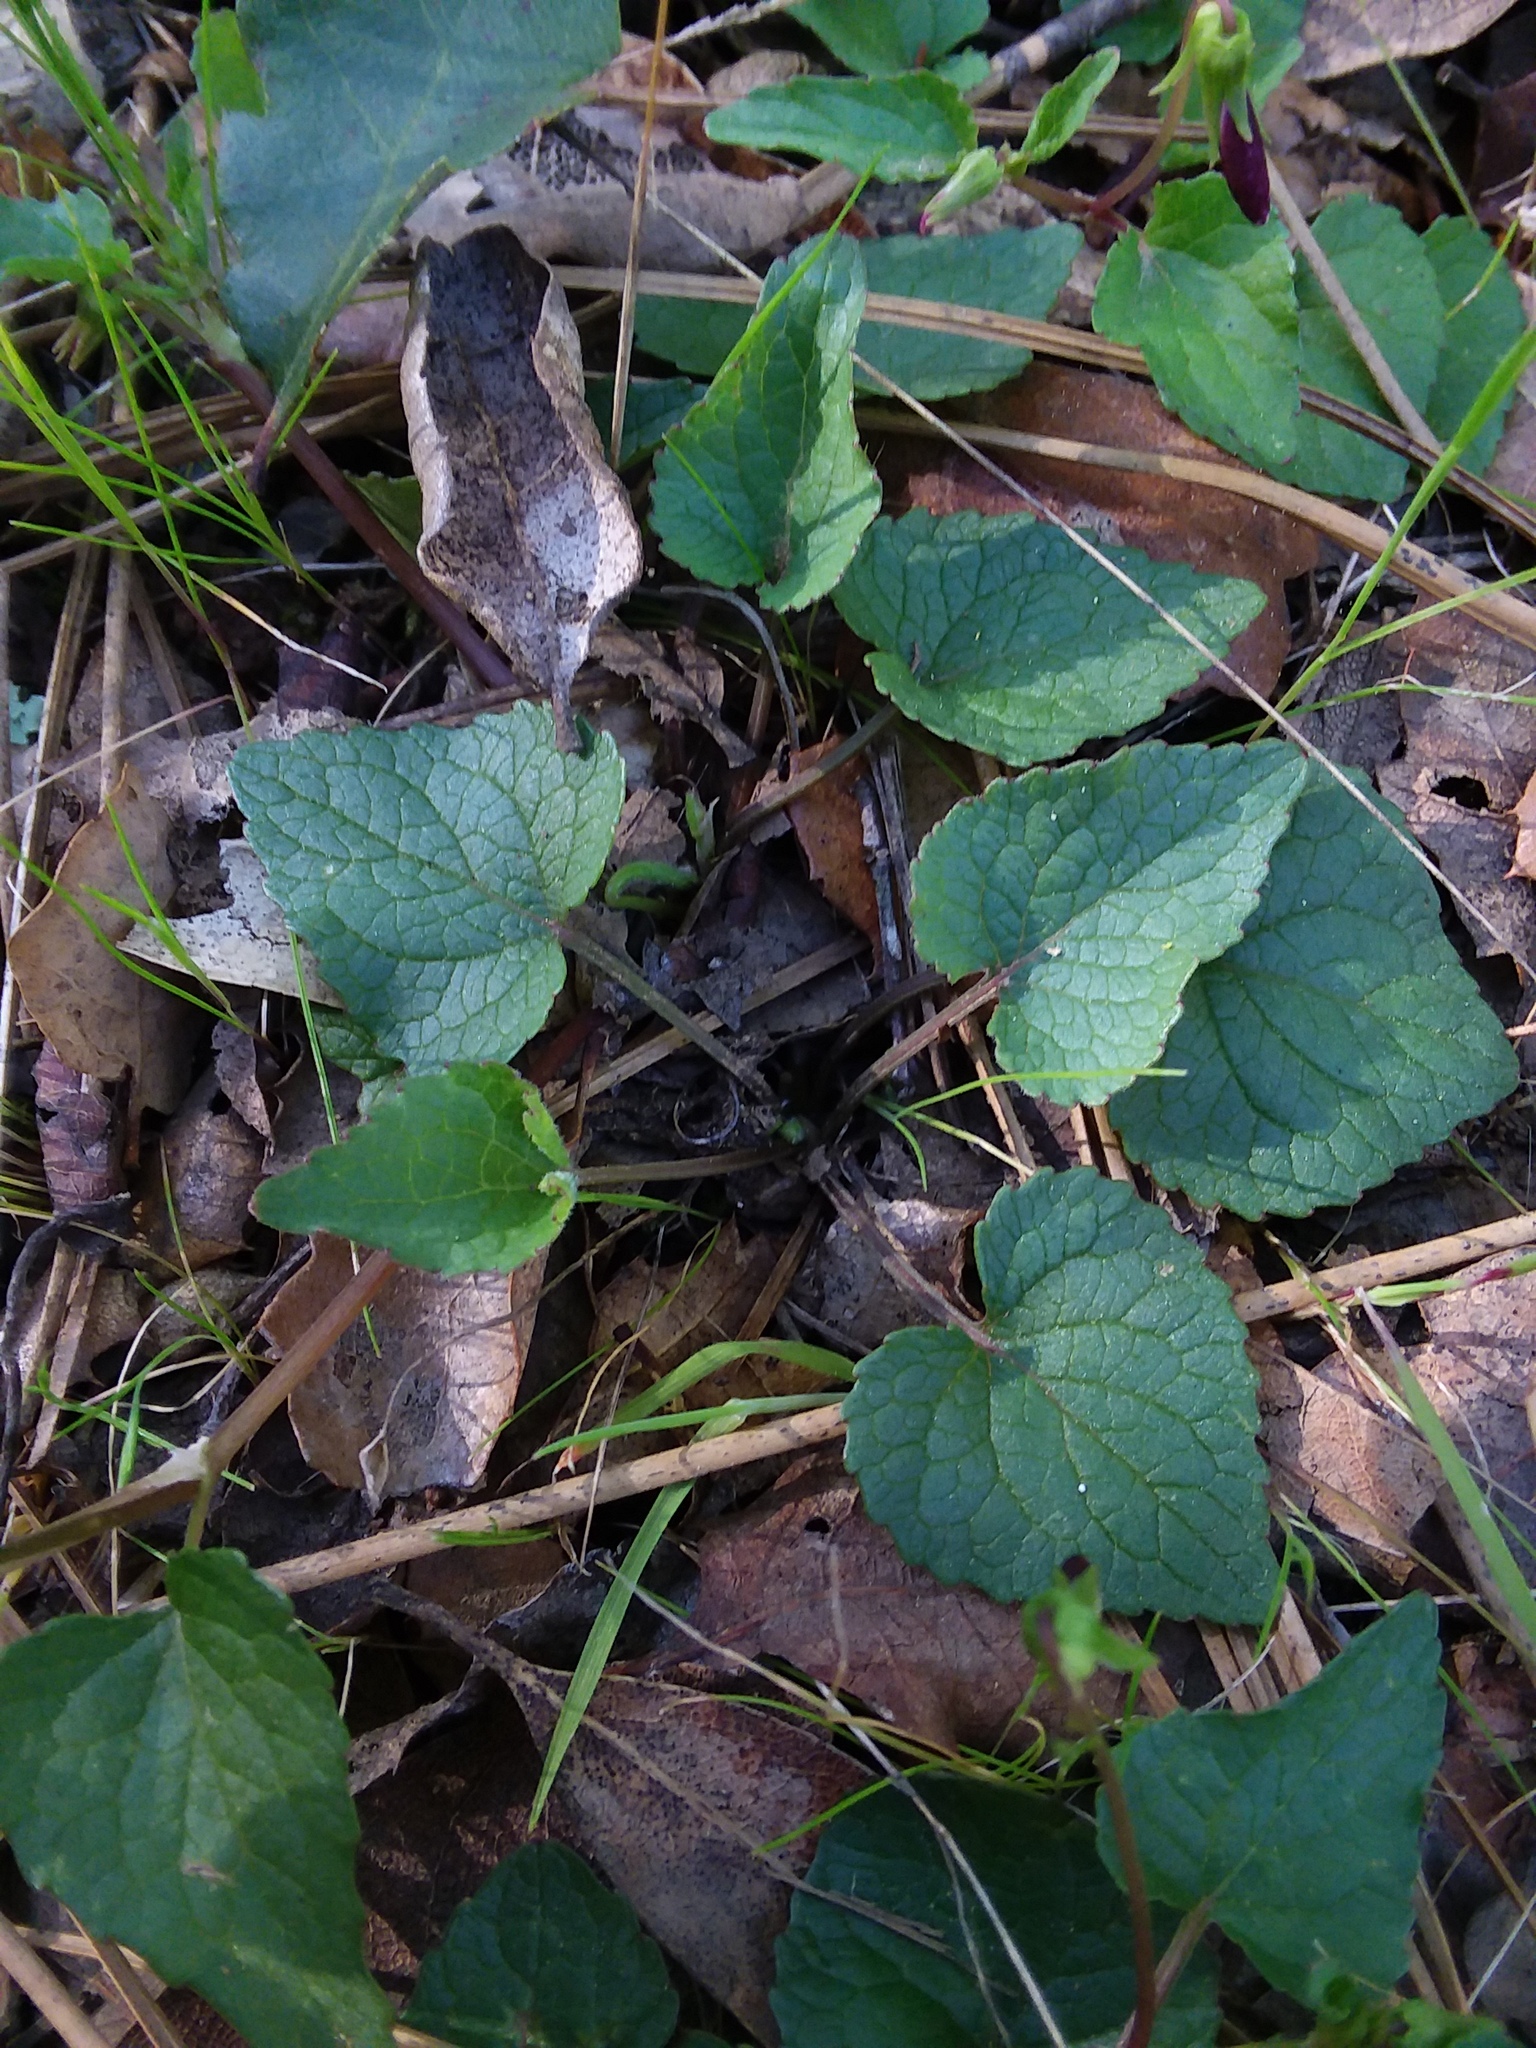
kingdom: Plantae
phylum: Tracheophyta
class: Magnoliopsida
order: Malpighiales
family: Violaceae
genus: Viola
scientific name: Viola ocellata
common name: Western heart's ease
